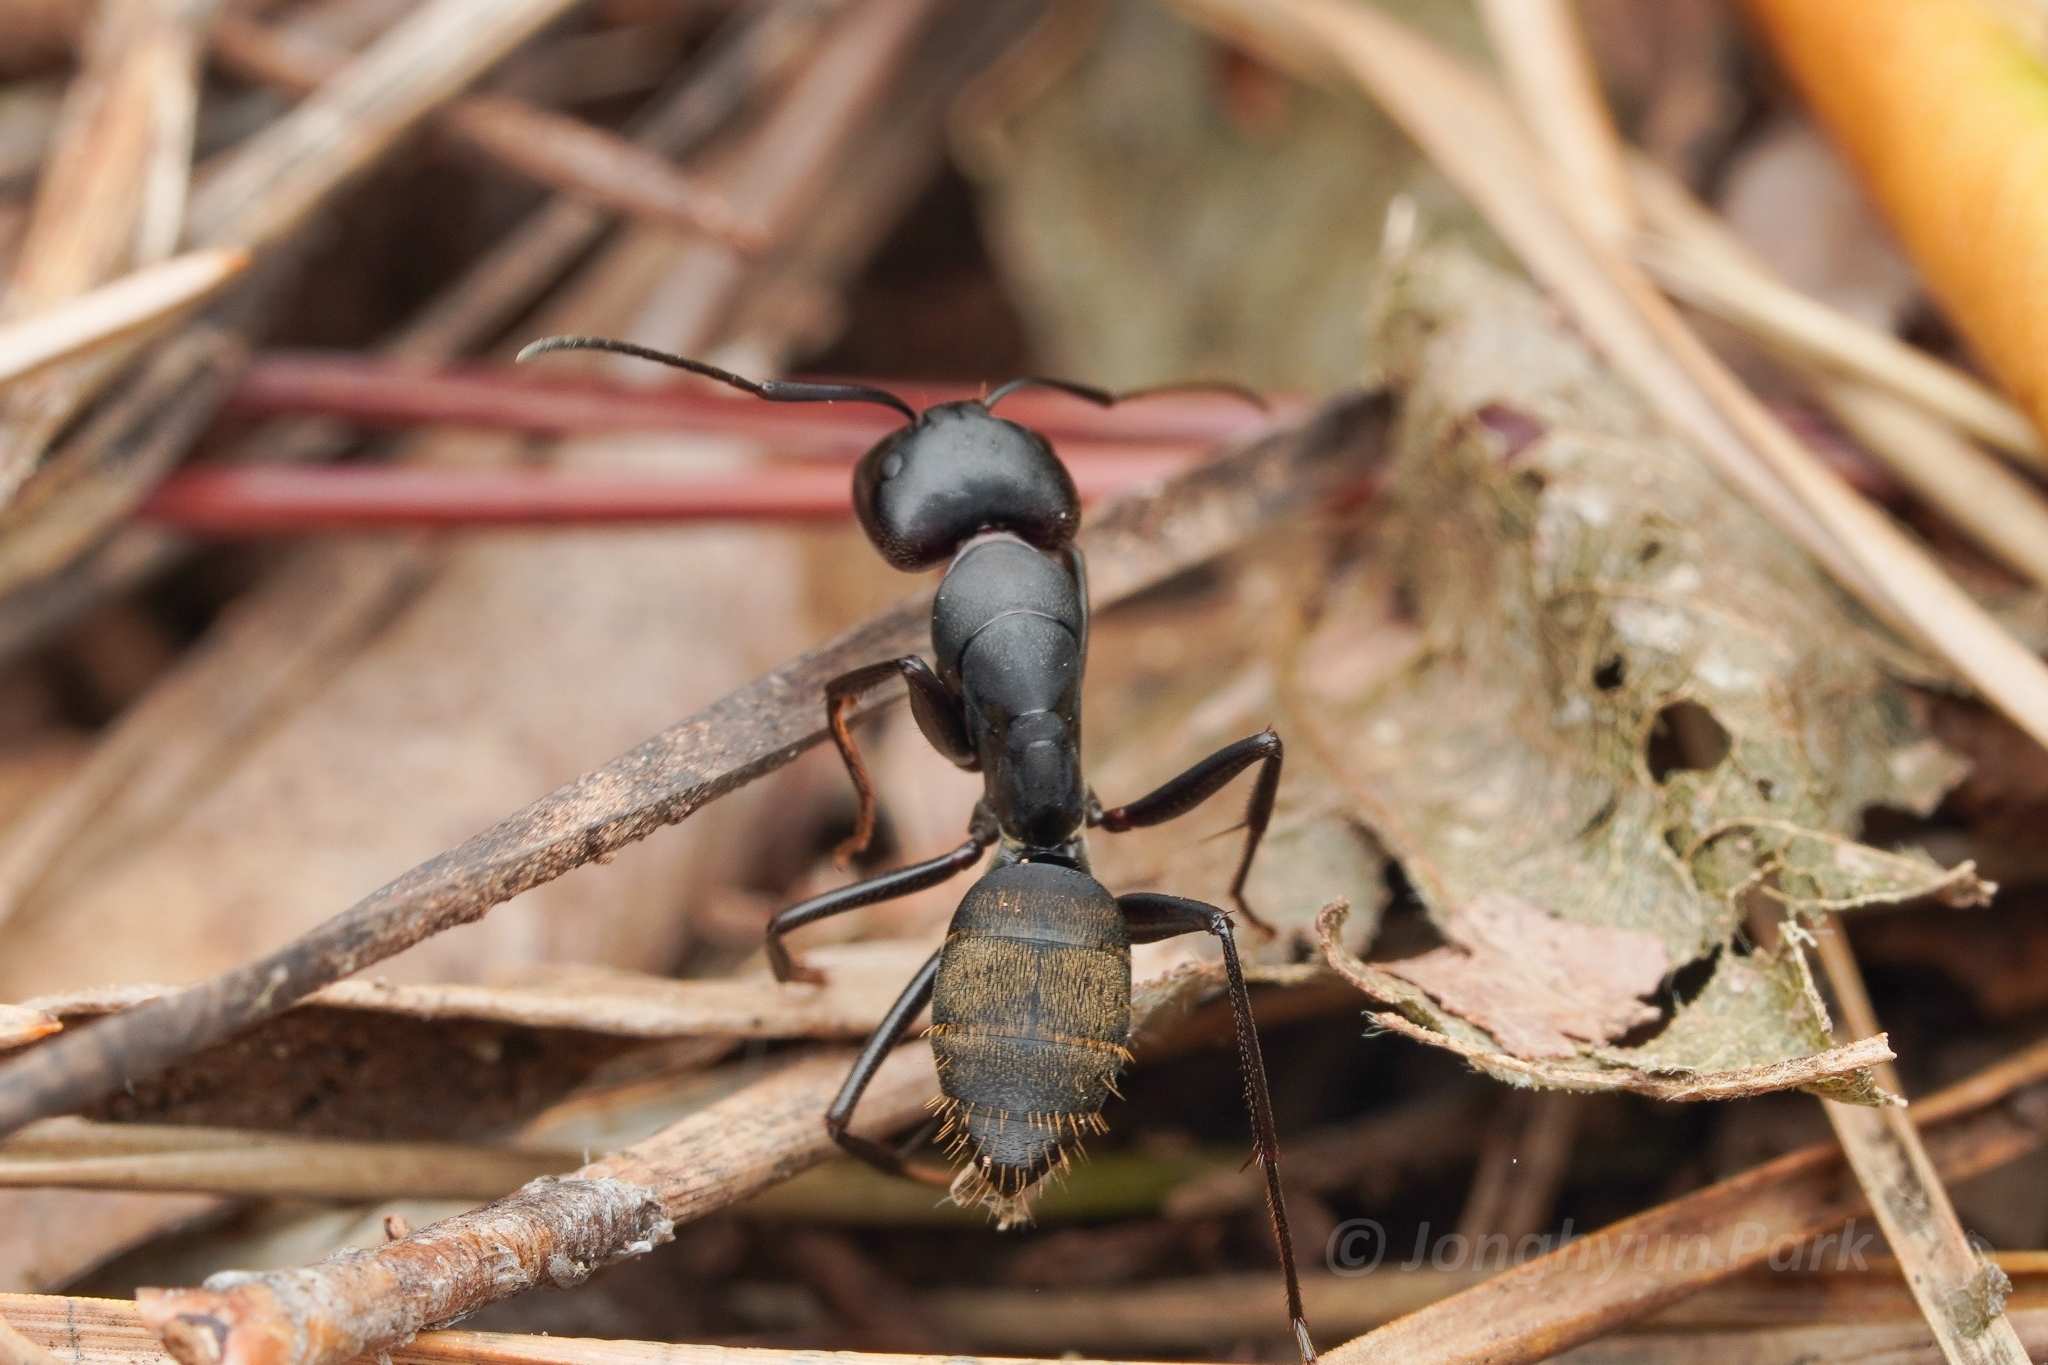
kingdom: Animalia
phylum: Arthropoda
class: Insecta
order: Hymenoptera
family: Formicidae
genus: Camponotus
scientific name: Camponotus japonicus
